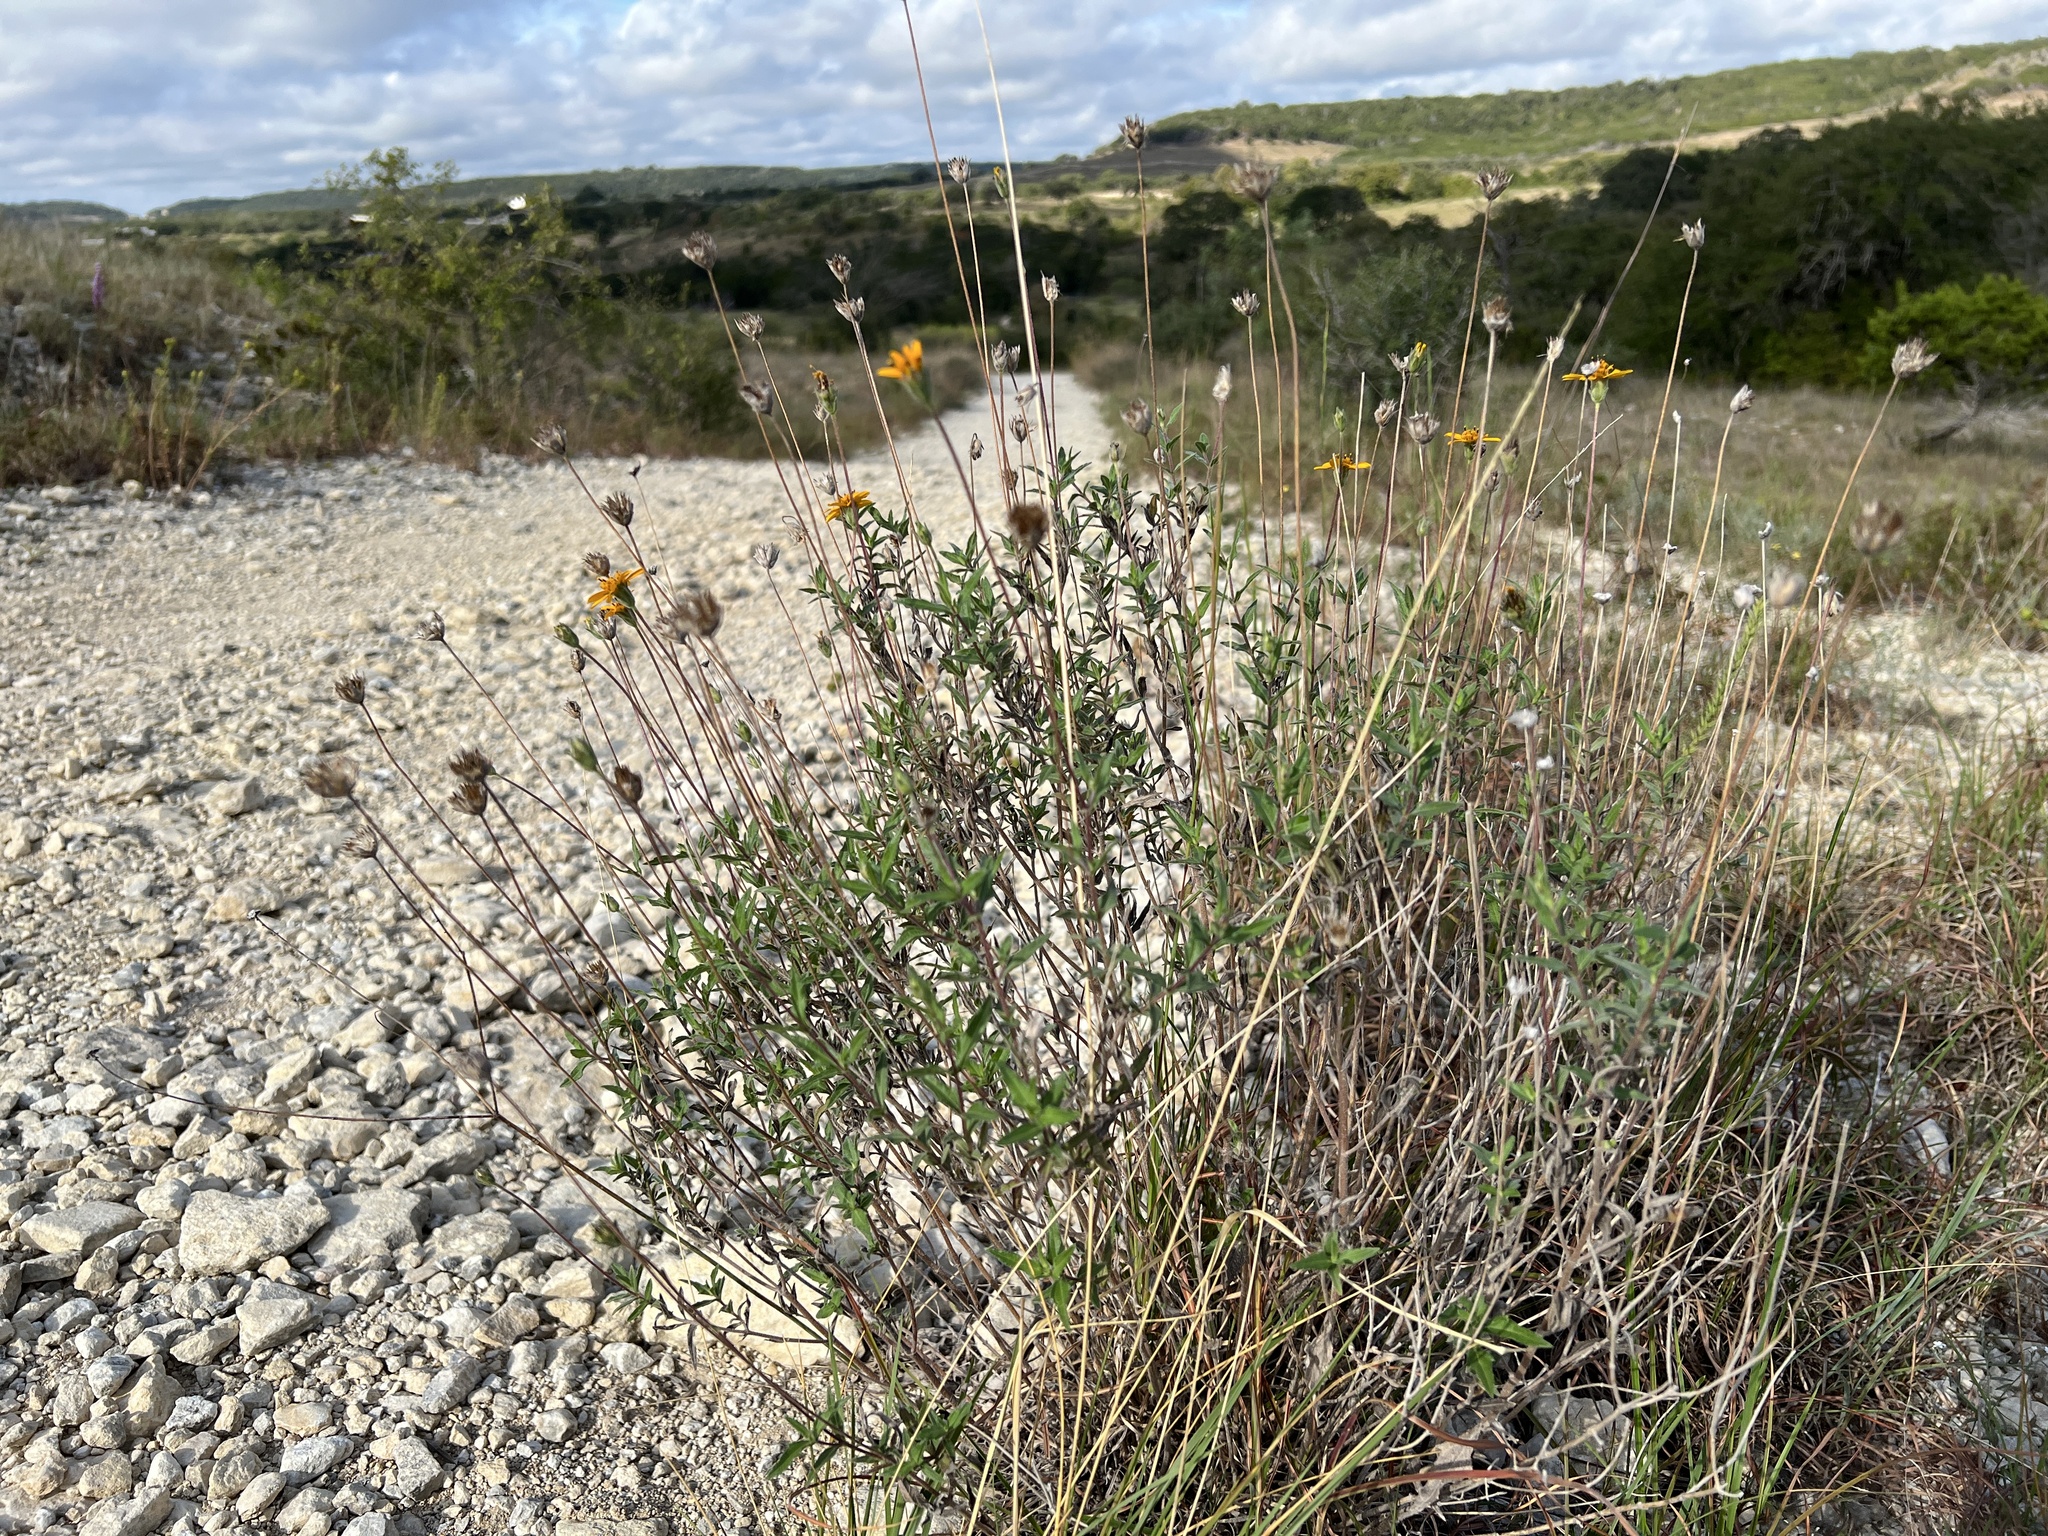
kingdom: Plantae
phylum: Tracheophyta
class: Magnoliopsida
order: Asterales
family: Asteraceae
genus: Wedelia
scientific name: Wedelia acapulcensis
